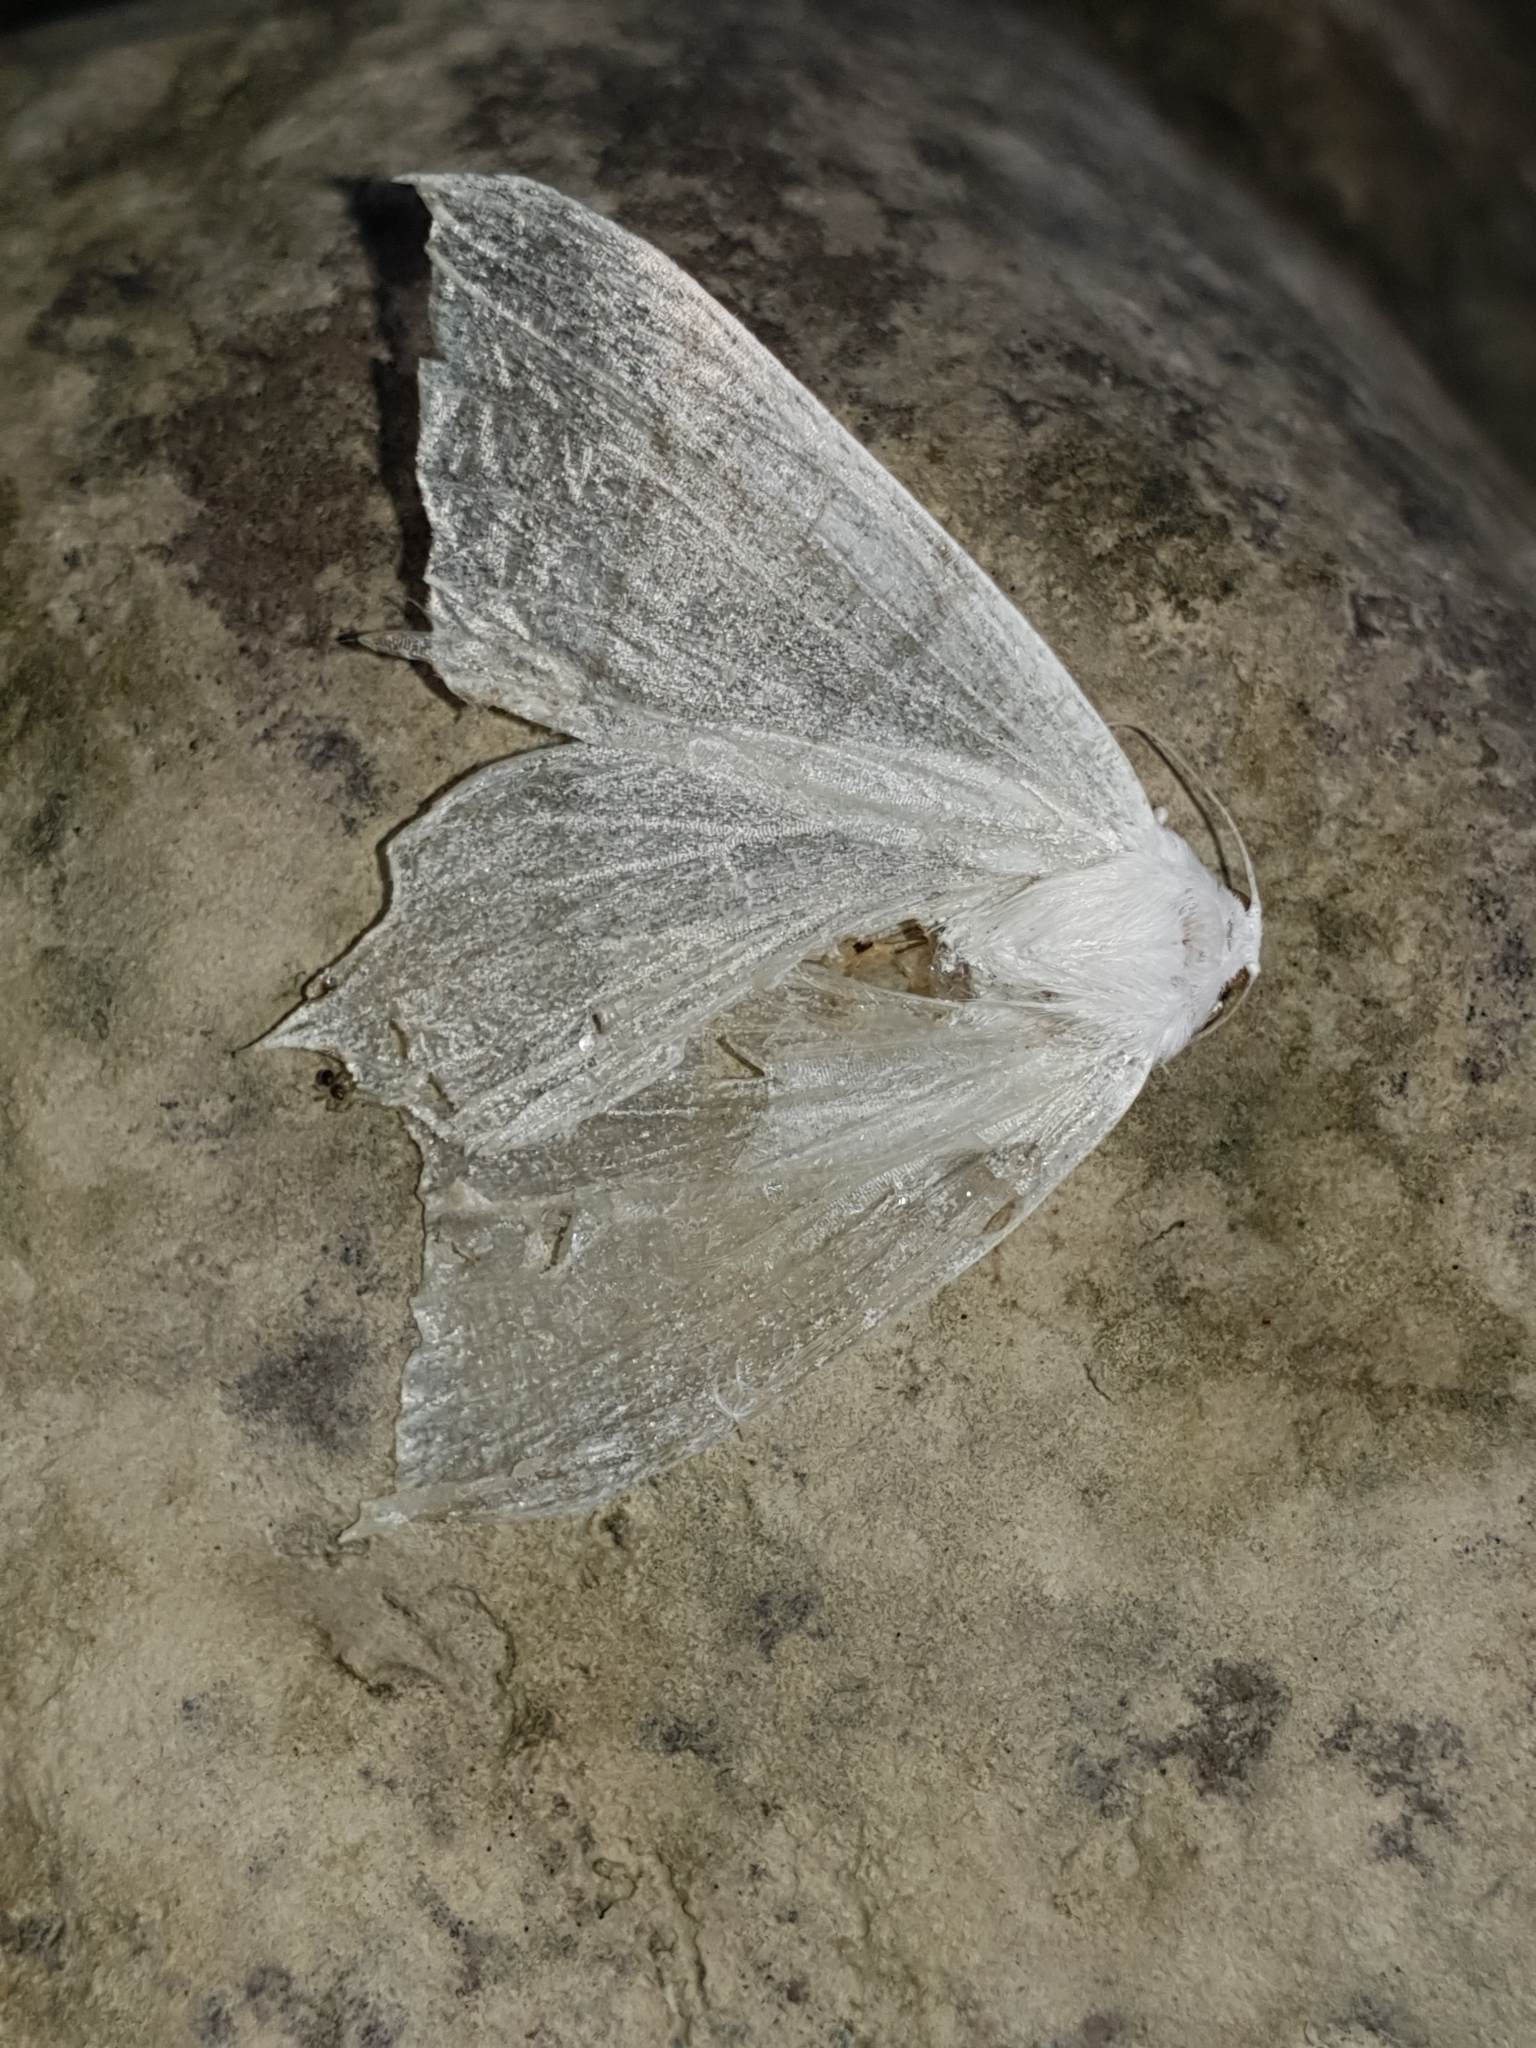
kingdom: Animalia
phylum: Arthropoda
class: Insecta
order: Lepidoptera
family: Geometridae
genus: Ourapteryx
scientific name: Ourapteryx
